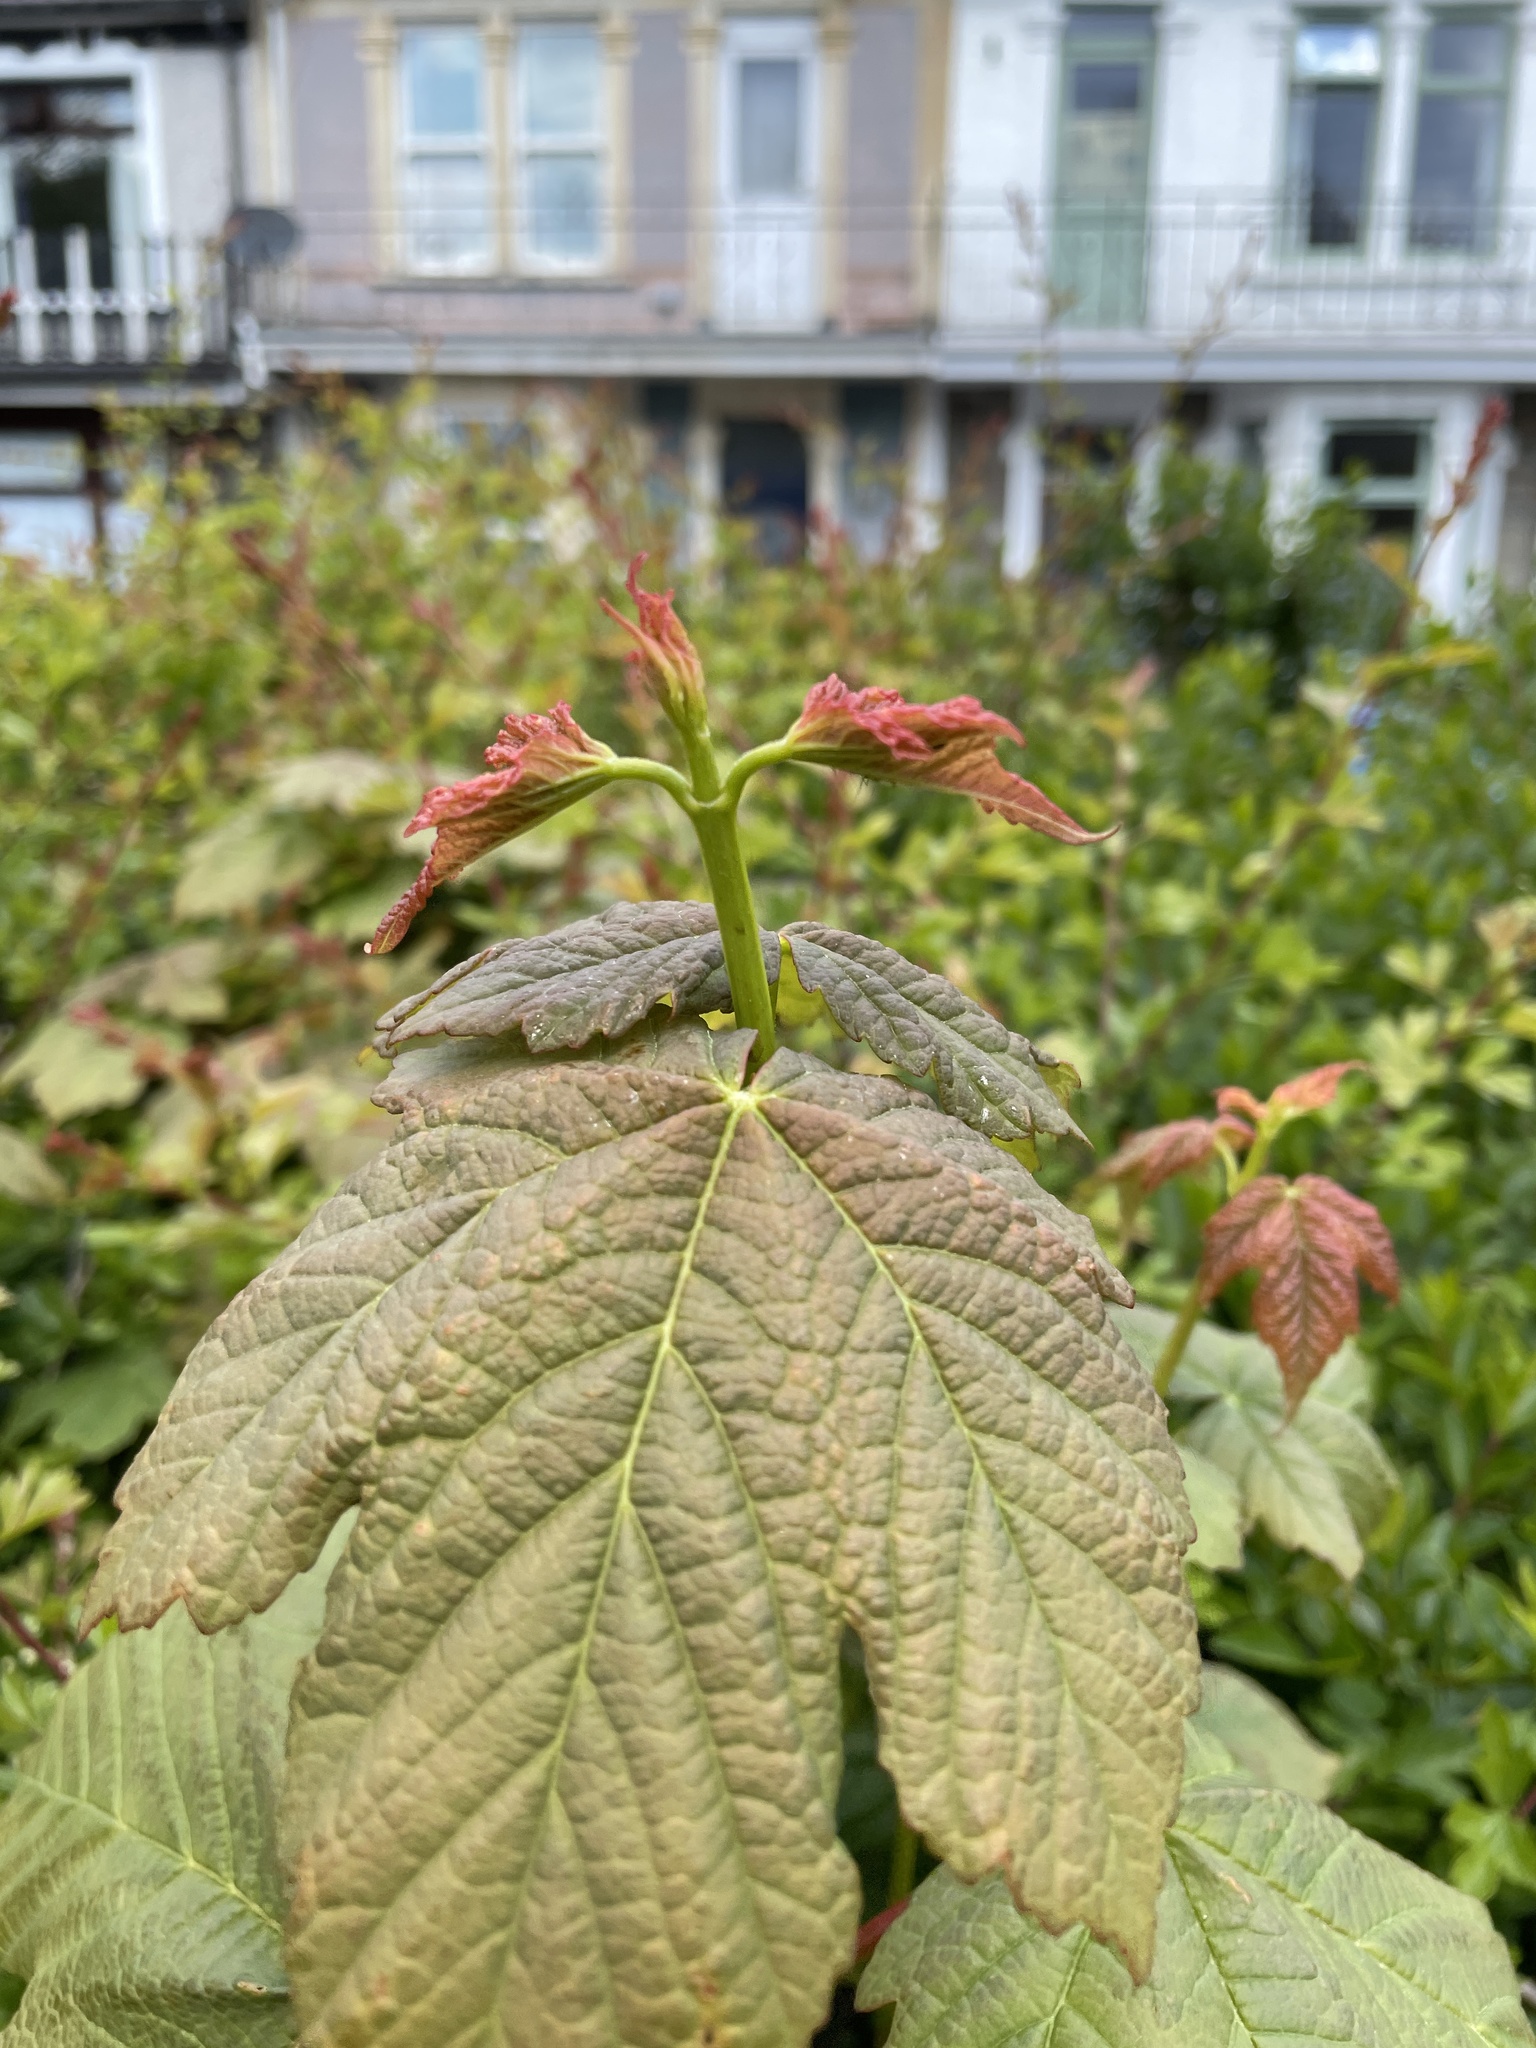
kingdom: Plantae
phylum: Tracheophyta
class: Magnoliopsida
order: Sapindales
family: Sapindaceae
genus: Acer
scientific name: Acer pseudoplatanus
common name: Sycamore
